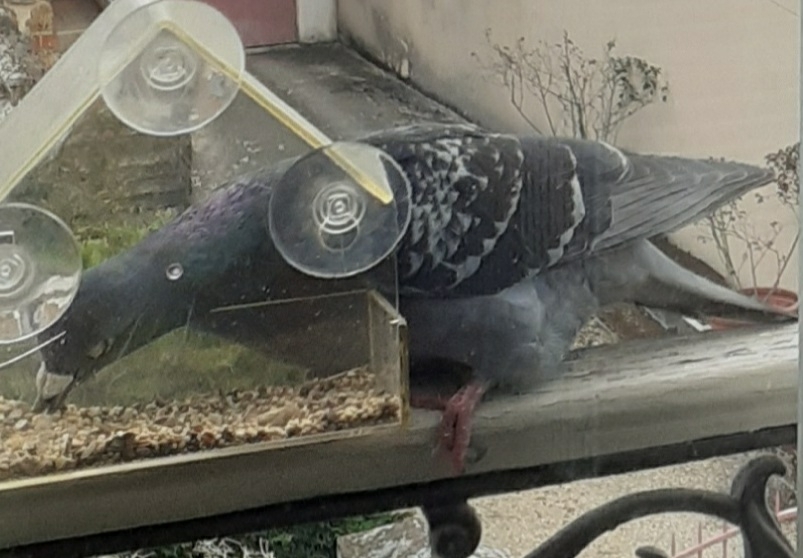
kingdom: Animalia
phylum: Chordata
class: Aves
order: Columbiformes
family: Columbidae
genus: Columba
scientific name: Columba livia
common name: Rock pigeon
